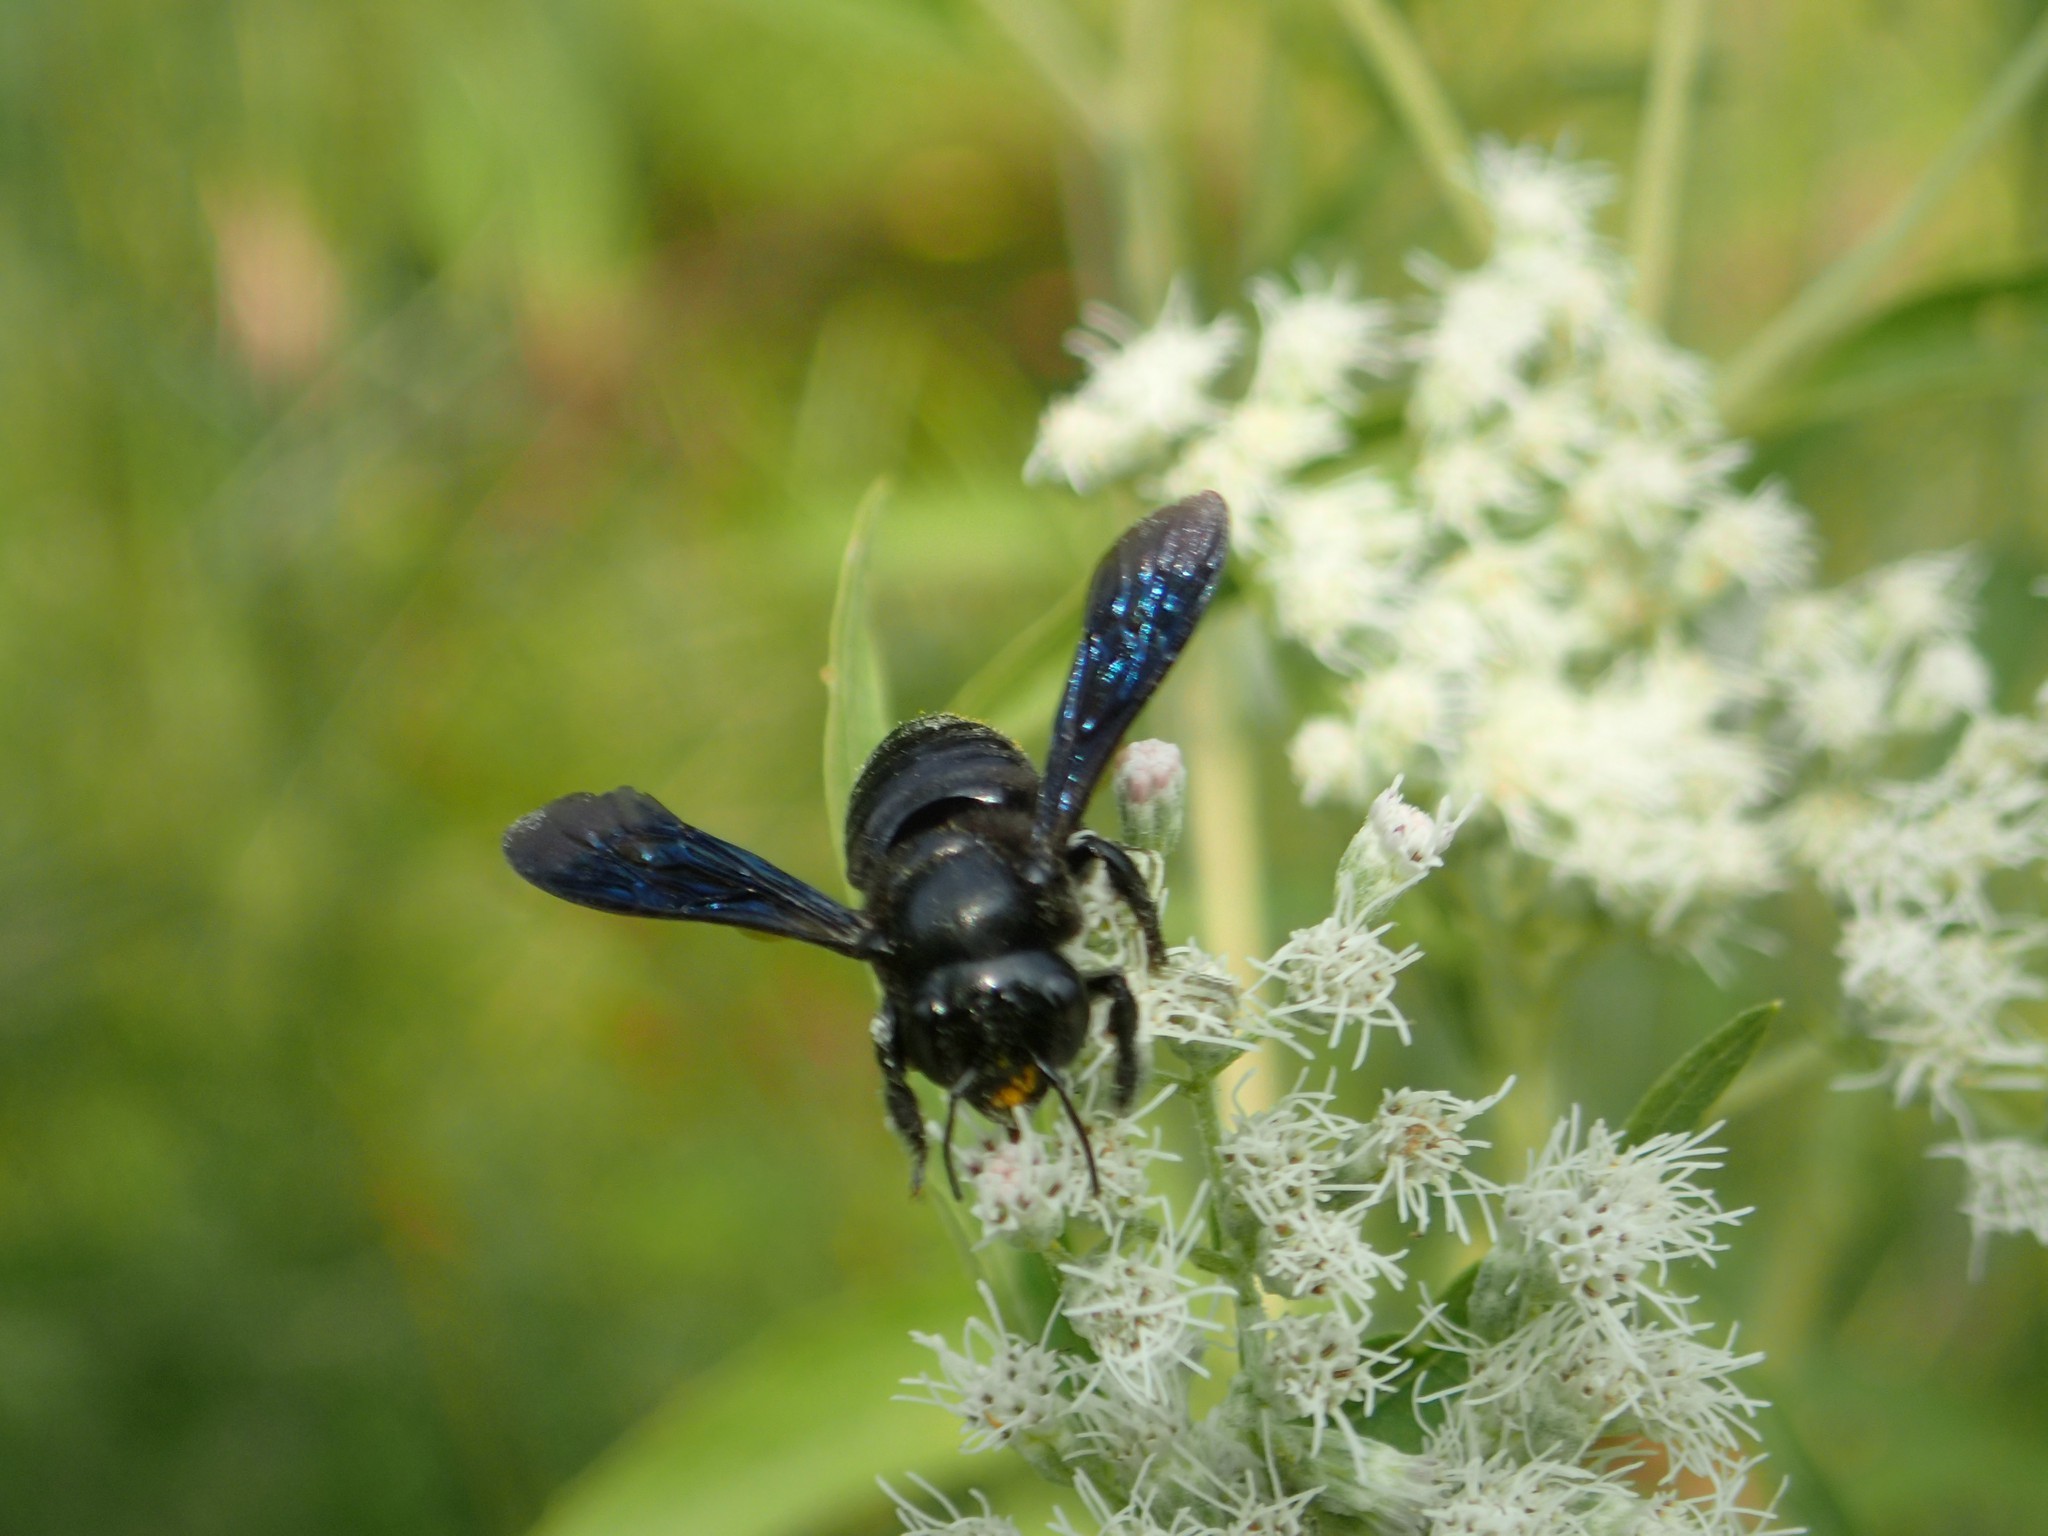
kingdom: Animalia
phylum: Arthropoda
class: Insecta
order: Hymenoptera
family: Megachilidae
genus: Megachile
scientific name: Megachile xylocopoides
